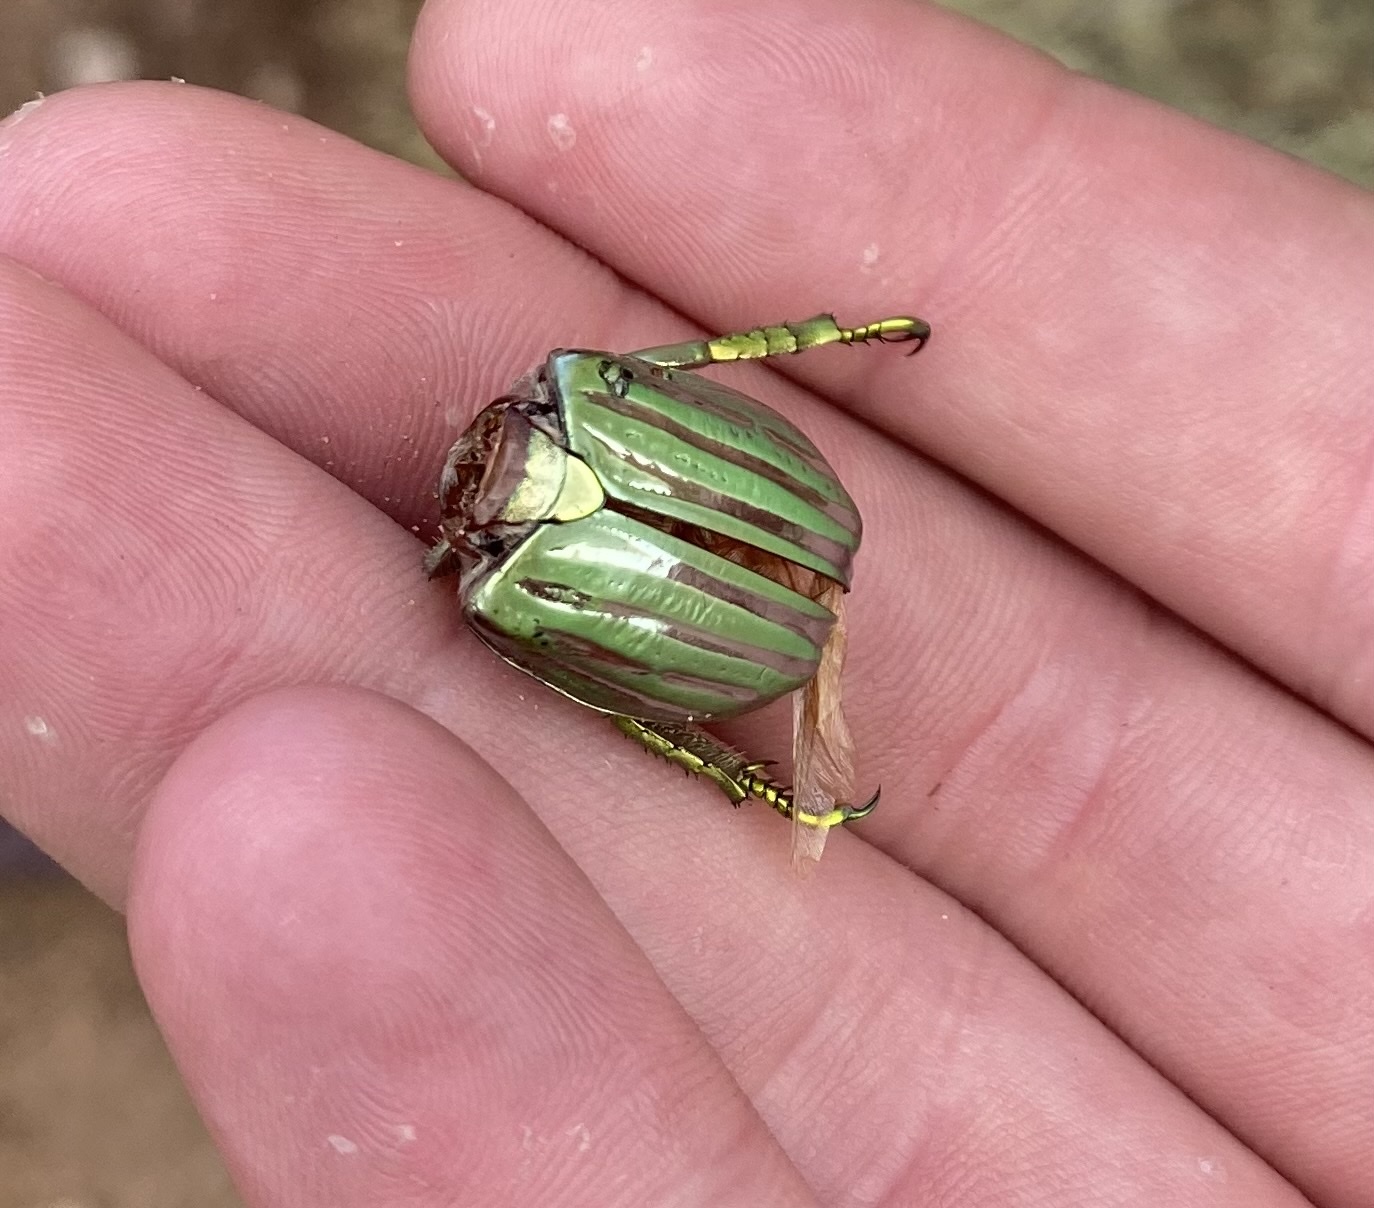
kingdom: Animalia
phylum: Arthropoda
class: Insecta
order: Coleoptera
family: Scarabaeidae
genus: Chrysina
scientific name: Chrysina gloriosa
